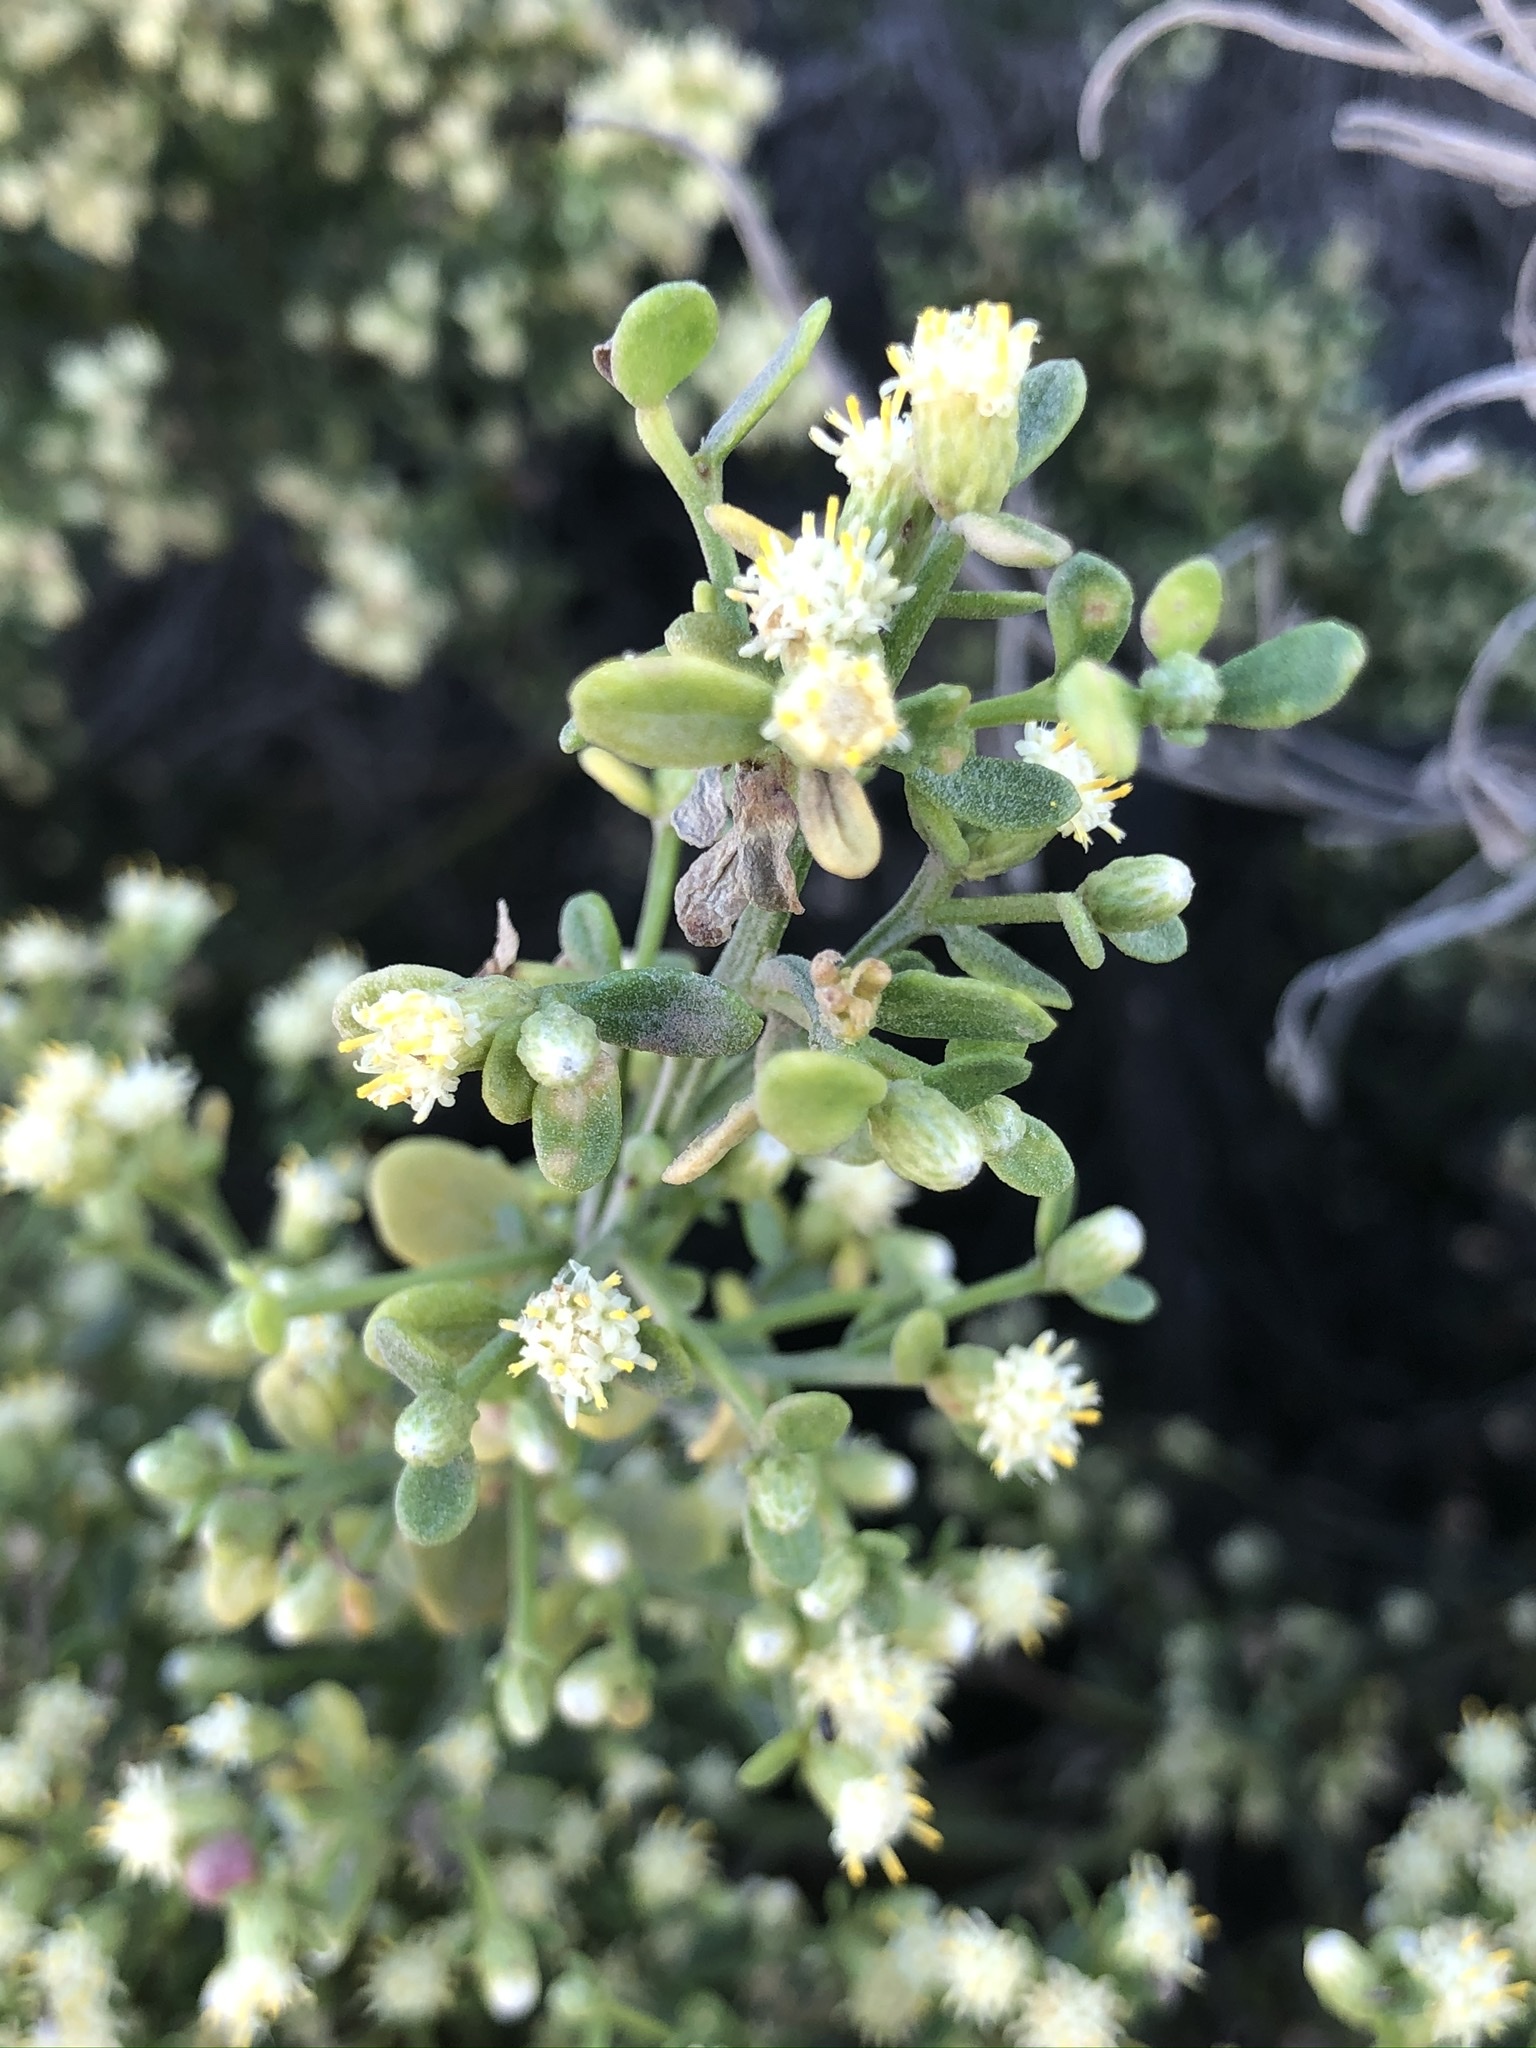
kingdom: Plantae
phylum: Tracheophyta
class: Magnoliopsida
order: Asterales
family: Asteraceae
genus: Baccharis
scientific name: Baccharis pilularis
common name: Coyotebrush
